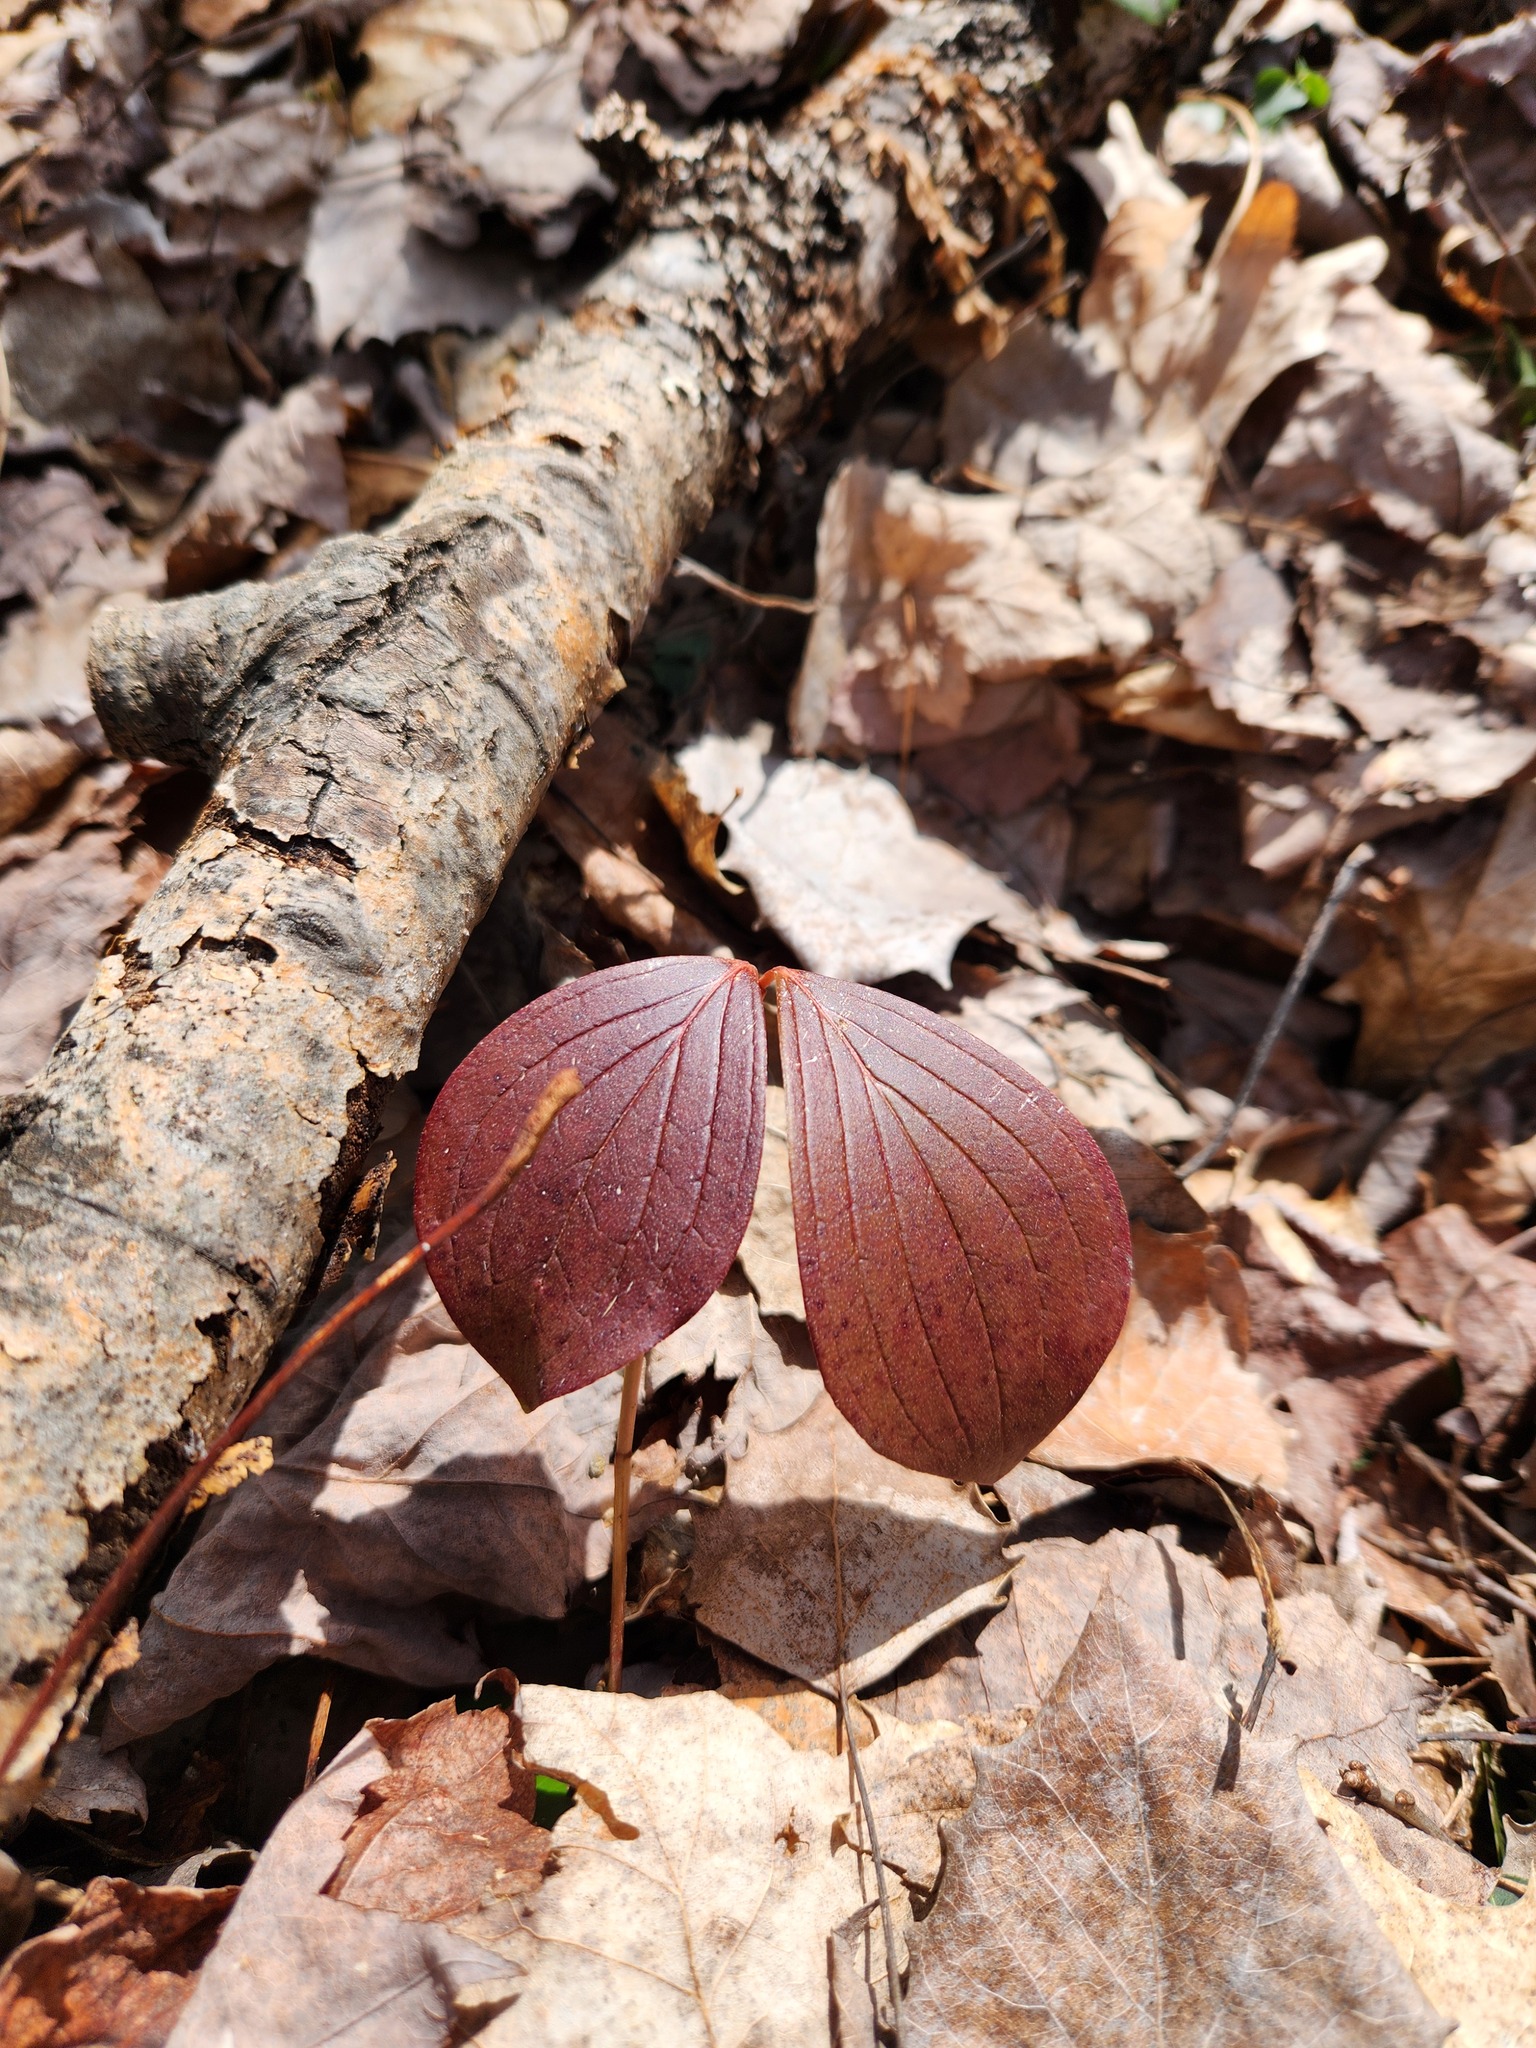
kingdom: Plantae
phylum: Tracheophyta
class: Magnoliopsida
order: Cornales
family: Cornaceae
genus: Cornus
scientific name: Cornus canadensis
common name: Creeping dogwood
